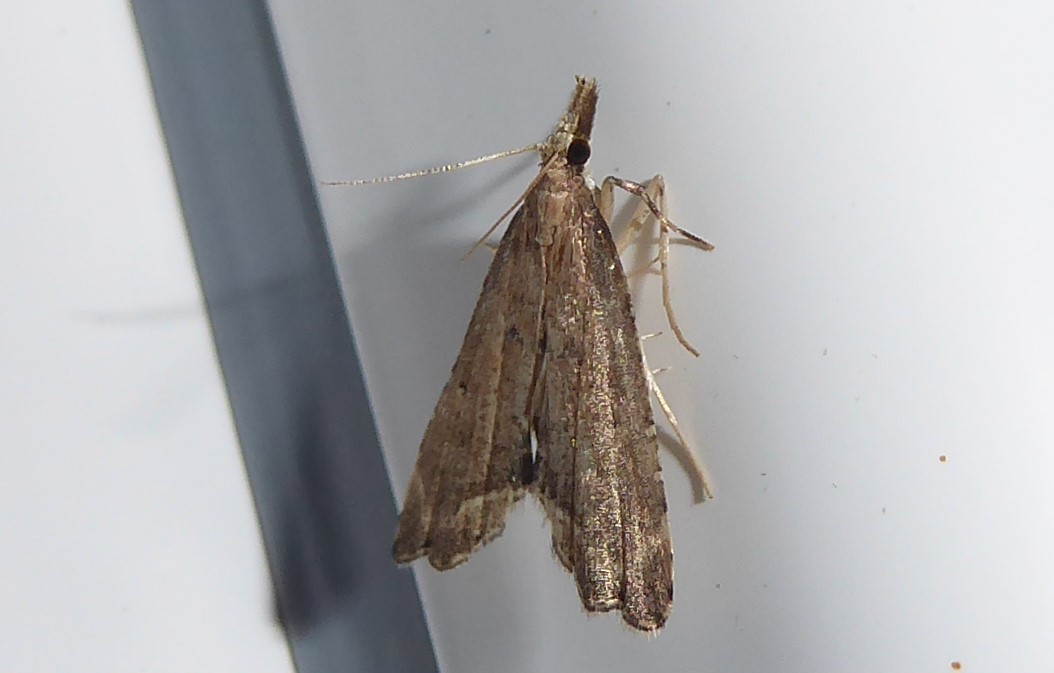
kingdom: Animalia
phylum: Arthropoda
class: Insecta
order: Lepidoptera
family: Crambidae
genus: Diplopseustis
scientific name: Diplopseustis perieresalis
